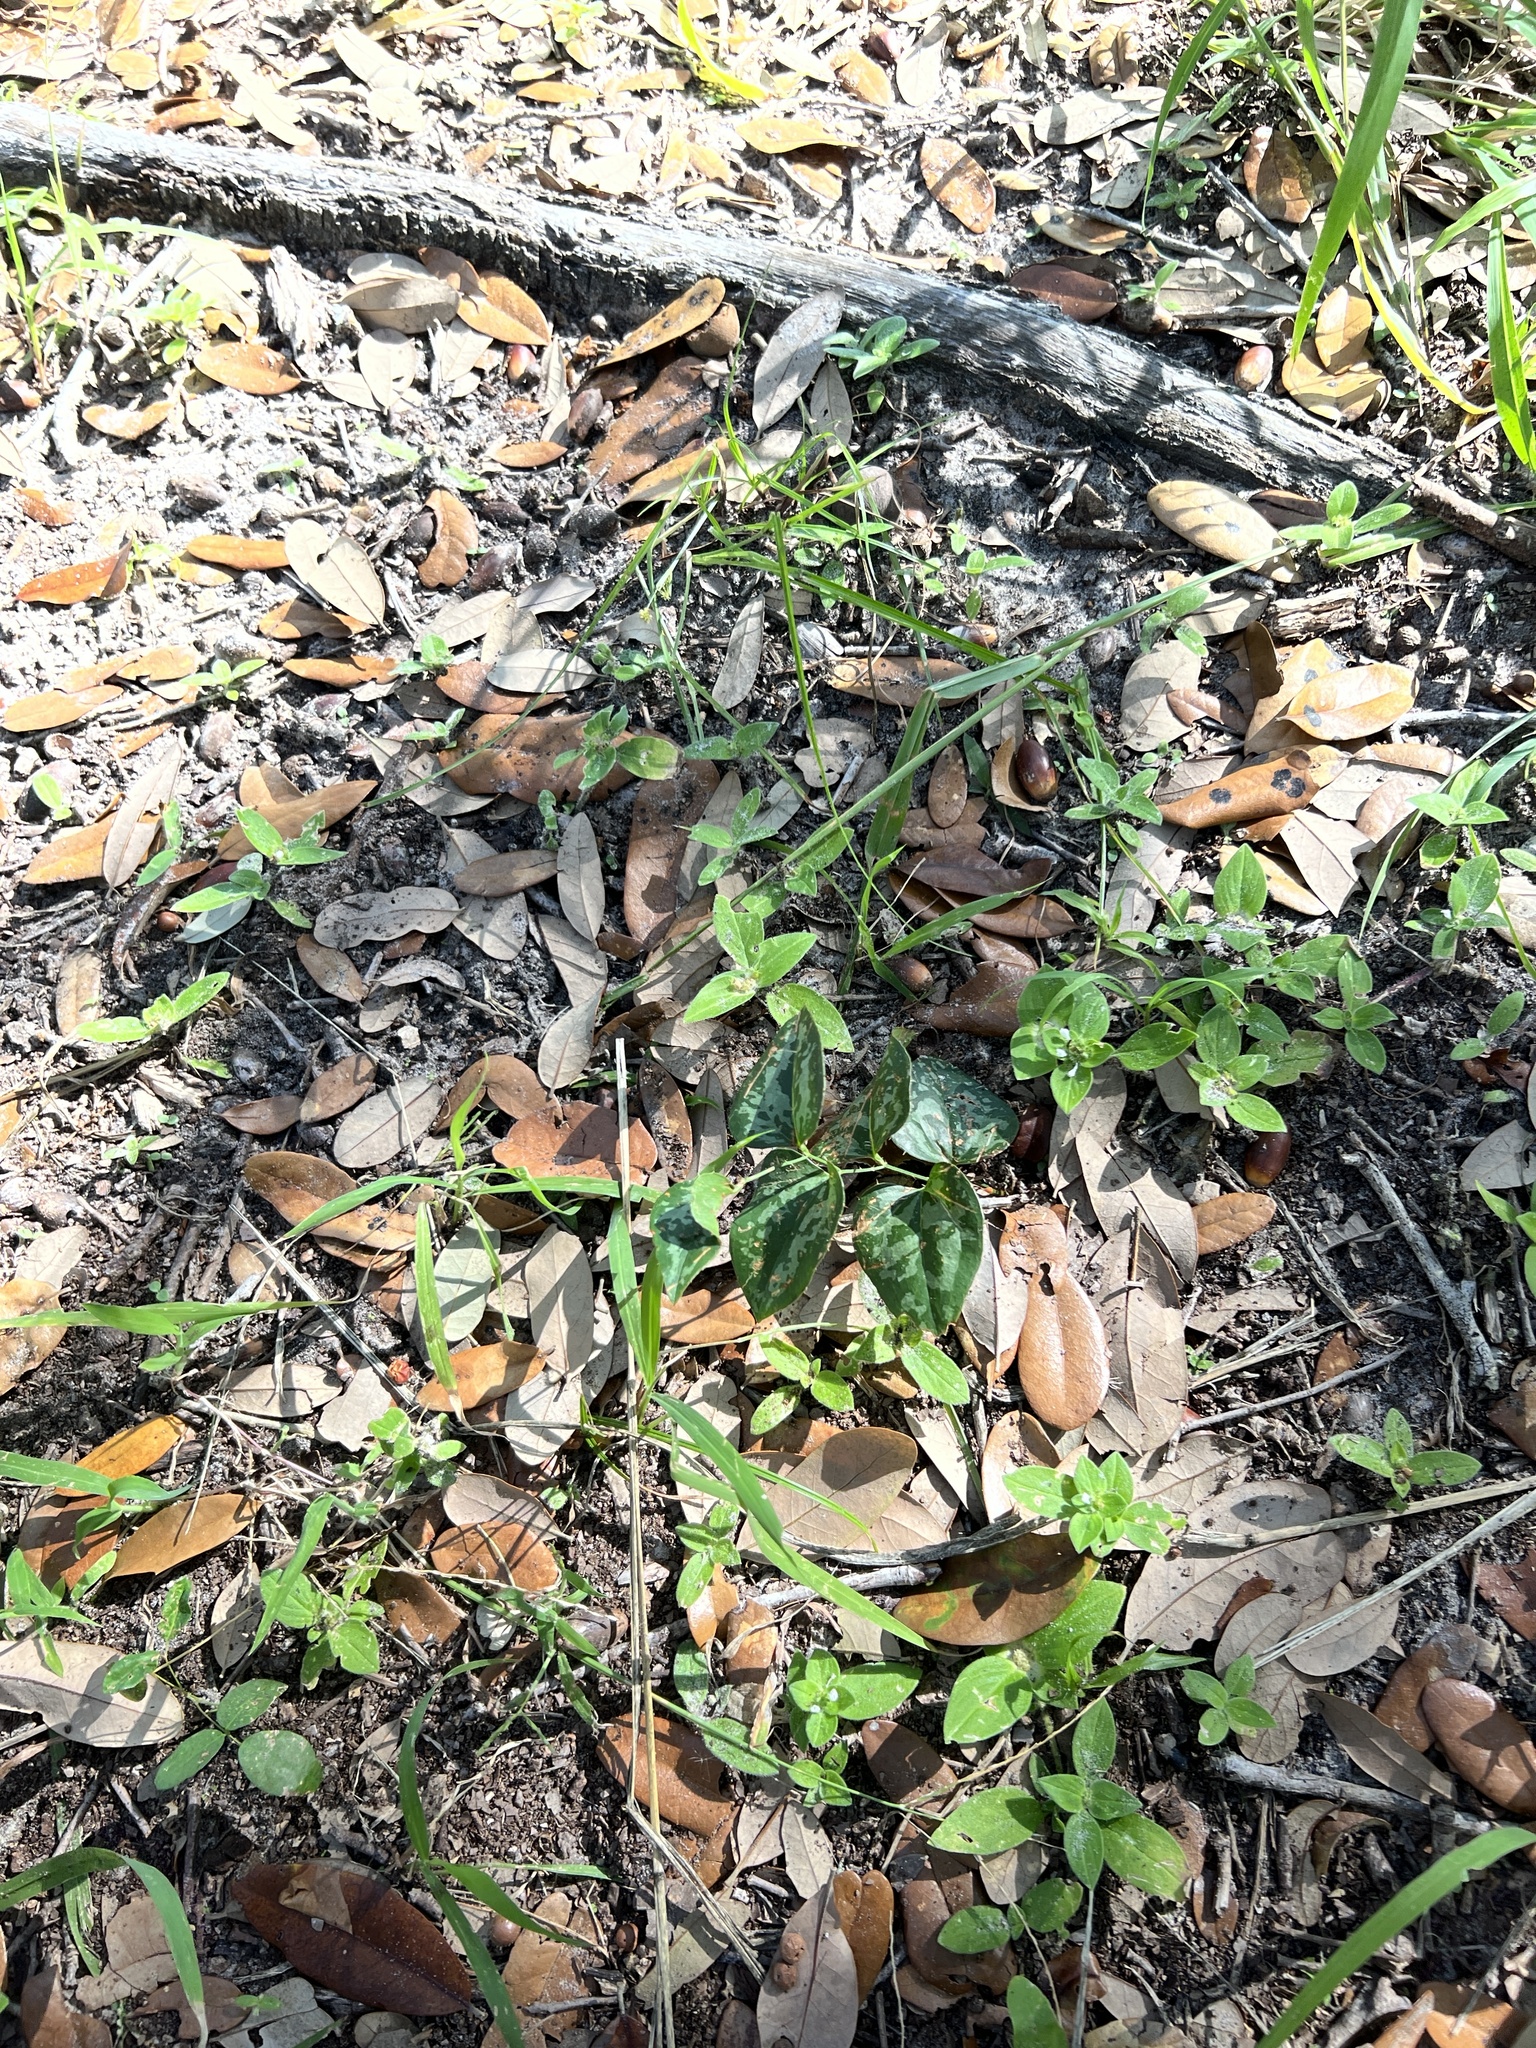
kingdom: Plantae
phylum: Tracheophyta
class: Liliopsida
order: Liliales
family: Smilacaceae
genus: Smilax
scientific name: Smilax bona-nox
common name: Catbrier
